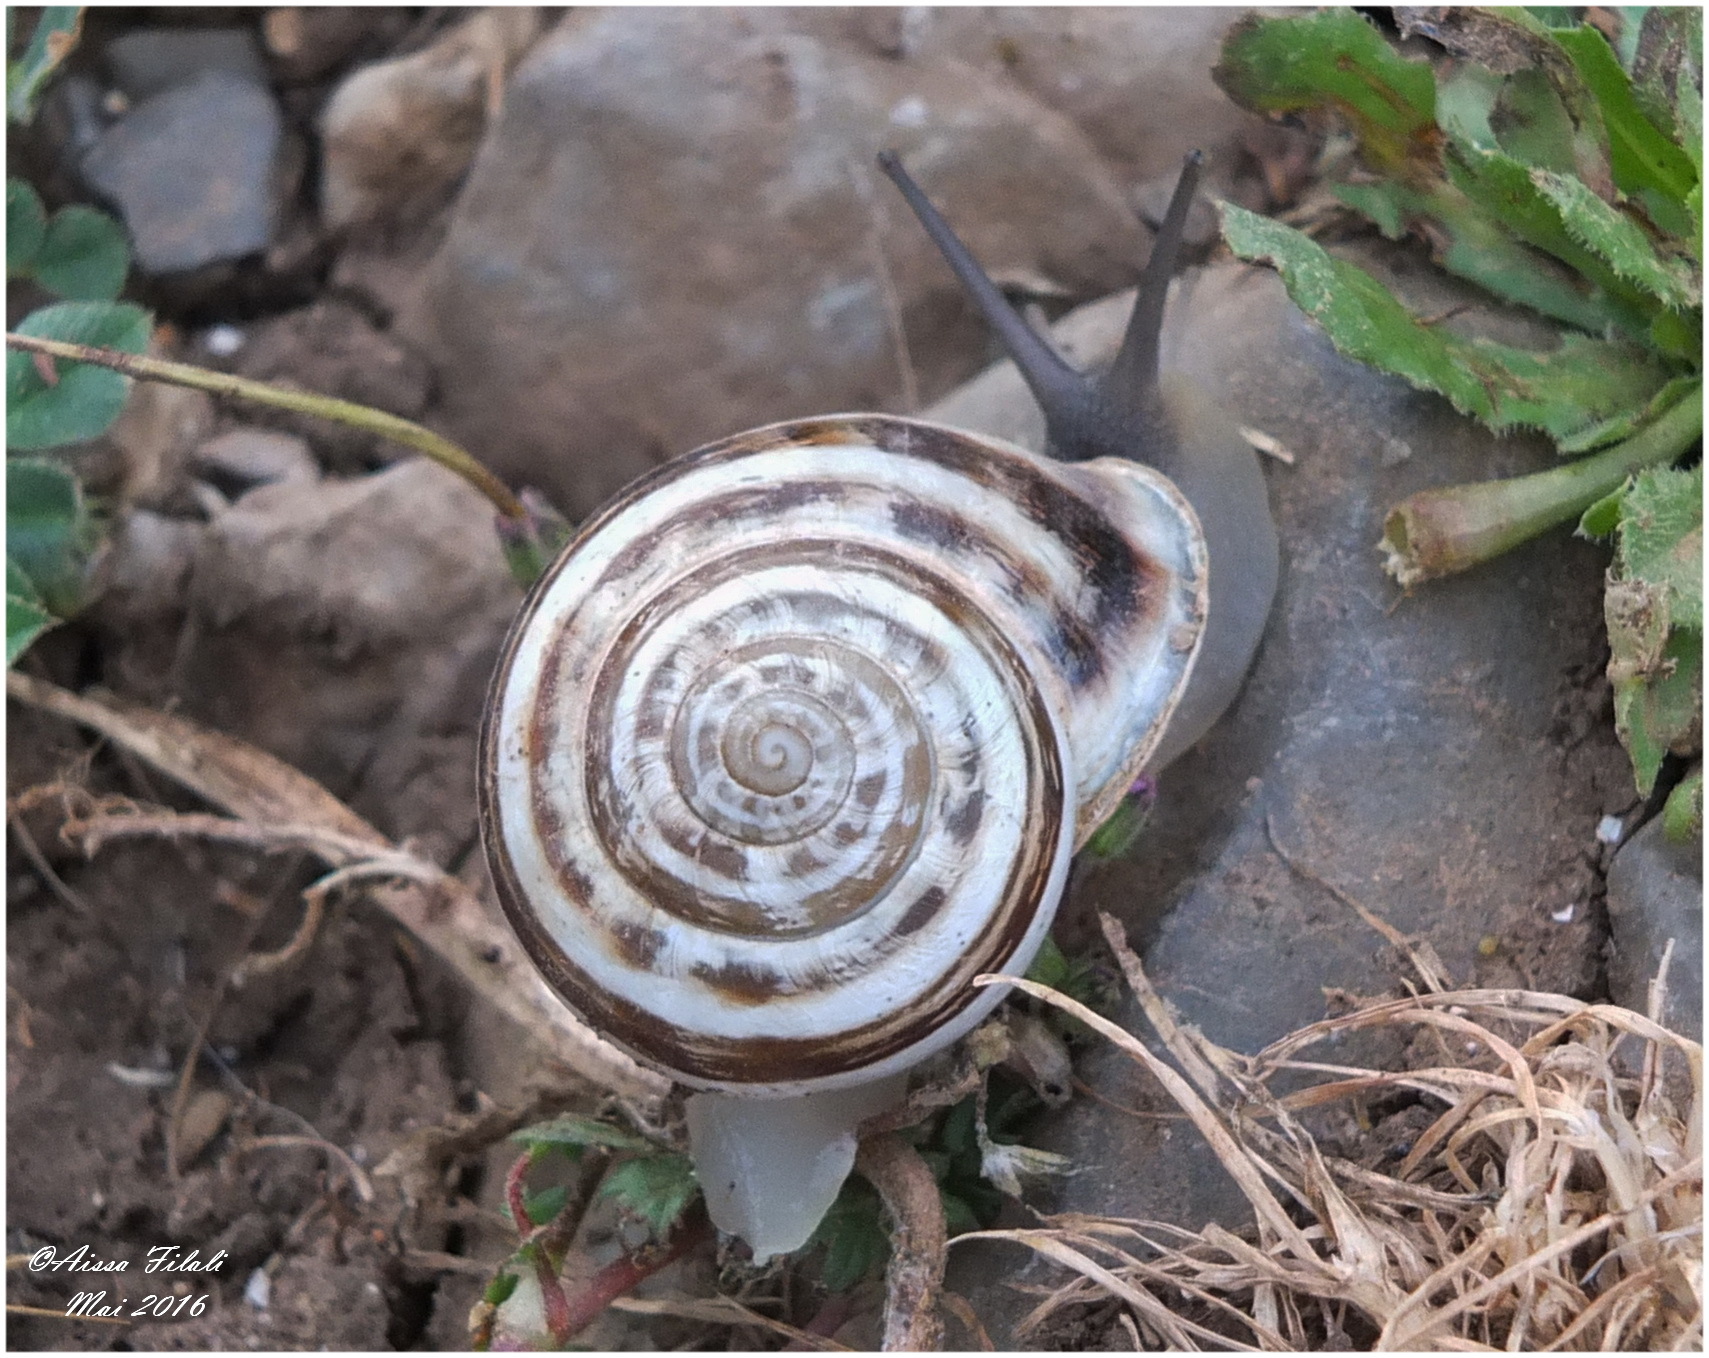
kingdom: Animalia
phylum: Mollusca
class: Gastropoda
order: Stylommatophora
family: Helicidae
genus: Eobania
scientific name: Eobania vermiculata
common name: Chocolateband snail
